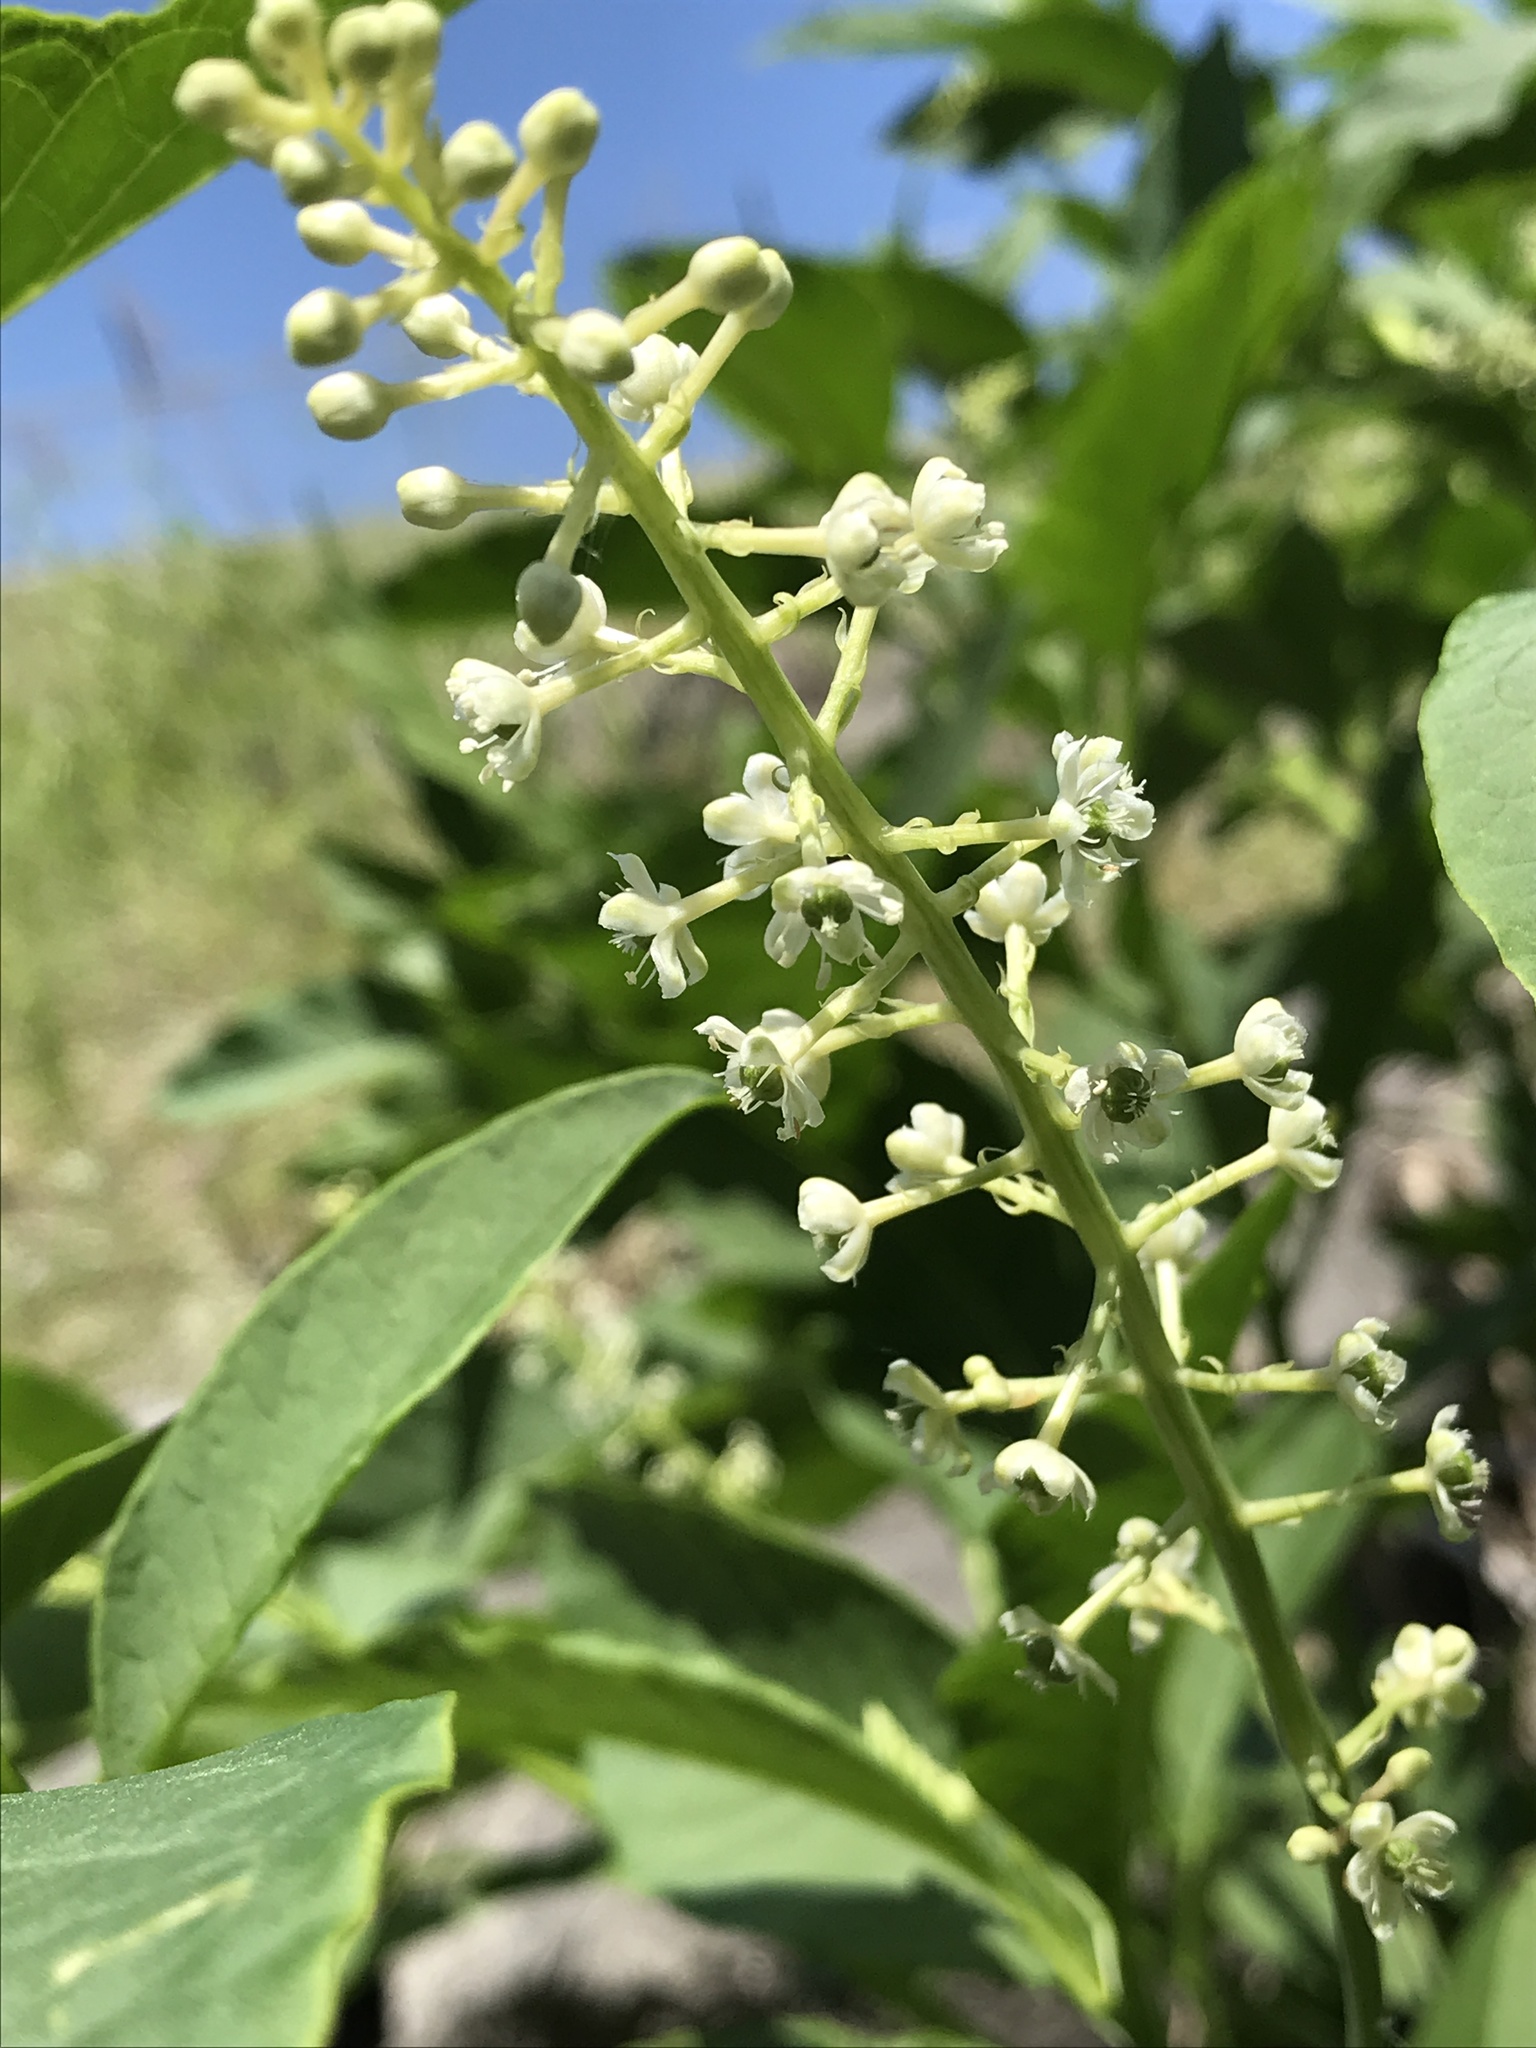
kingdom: Plantae
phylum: Tracheophyta
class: Magnoliopsida
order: Caryophyllales
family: Phytolaccaceae
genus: Phytolacca
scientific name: Phytolacca americana
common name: American pokeweed
